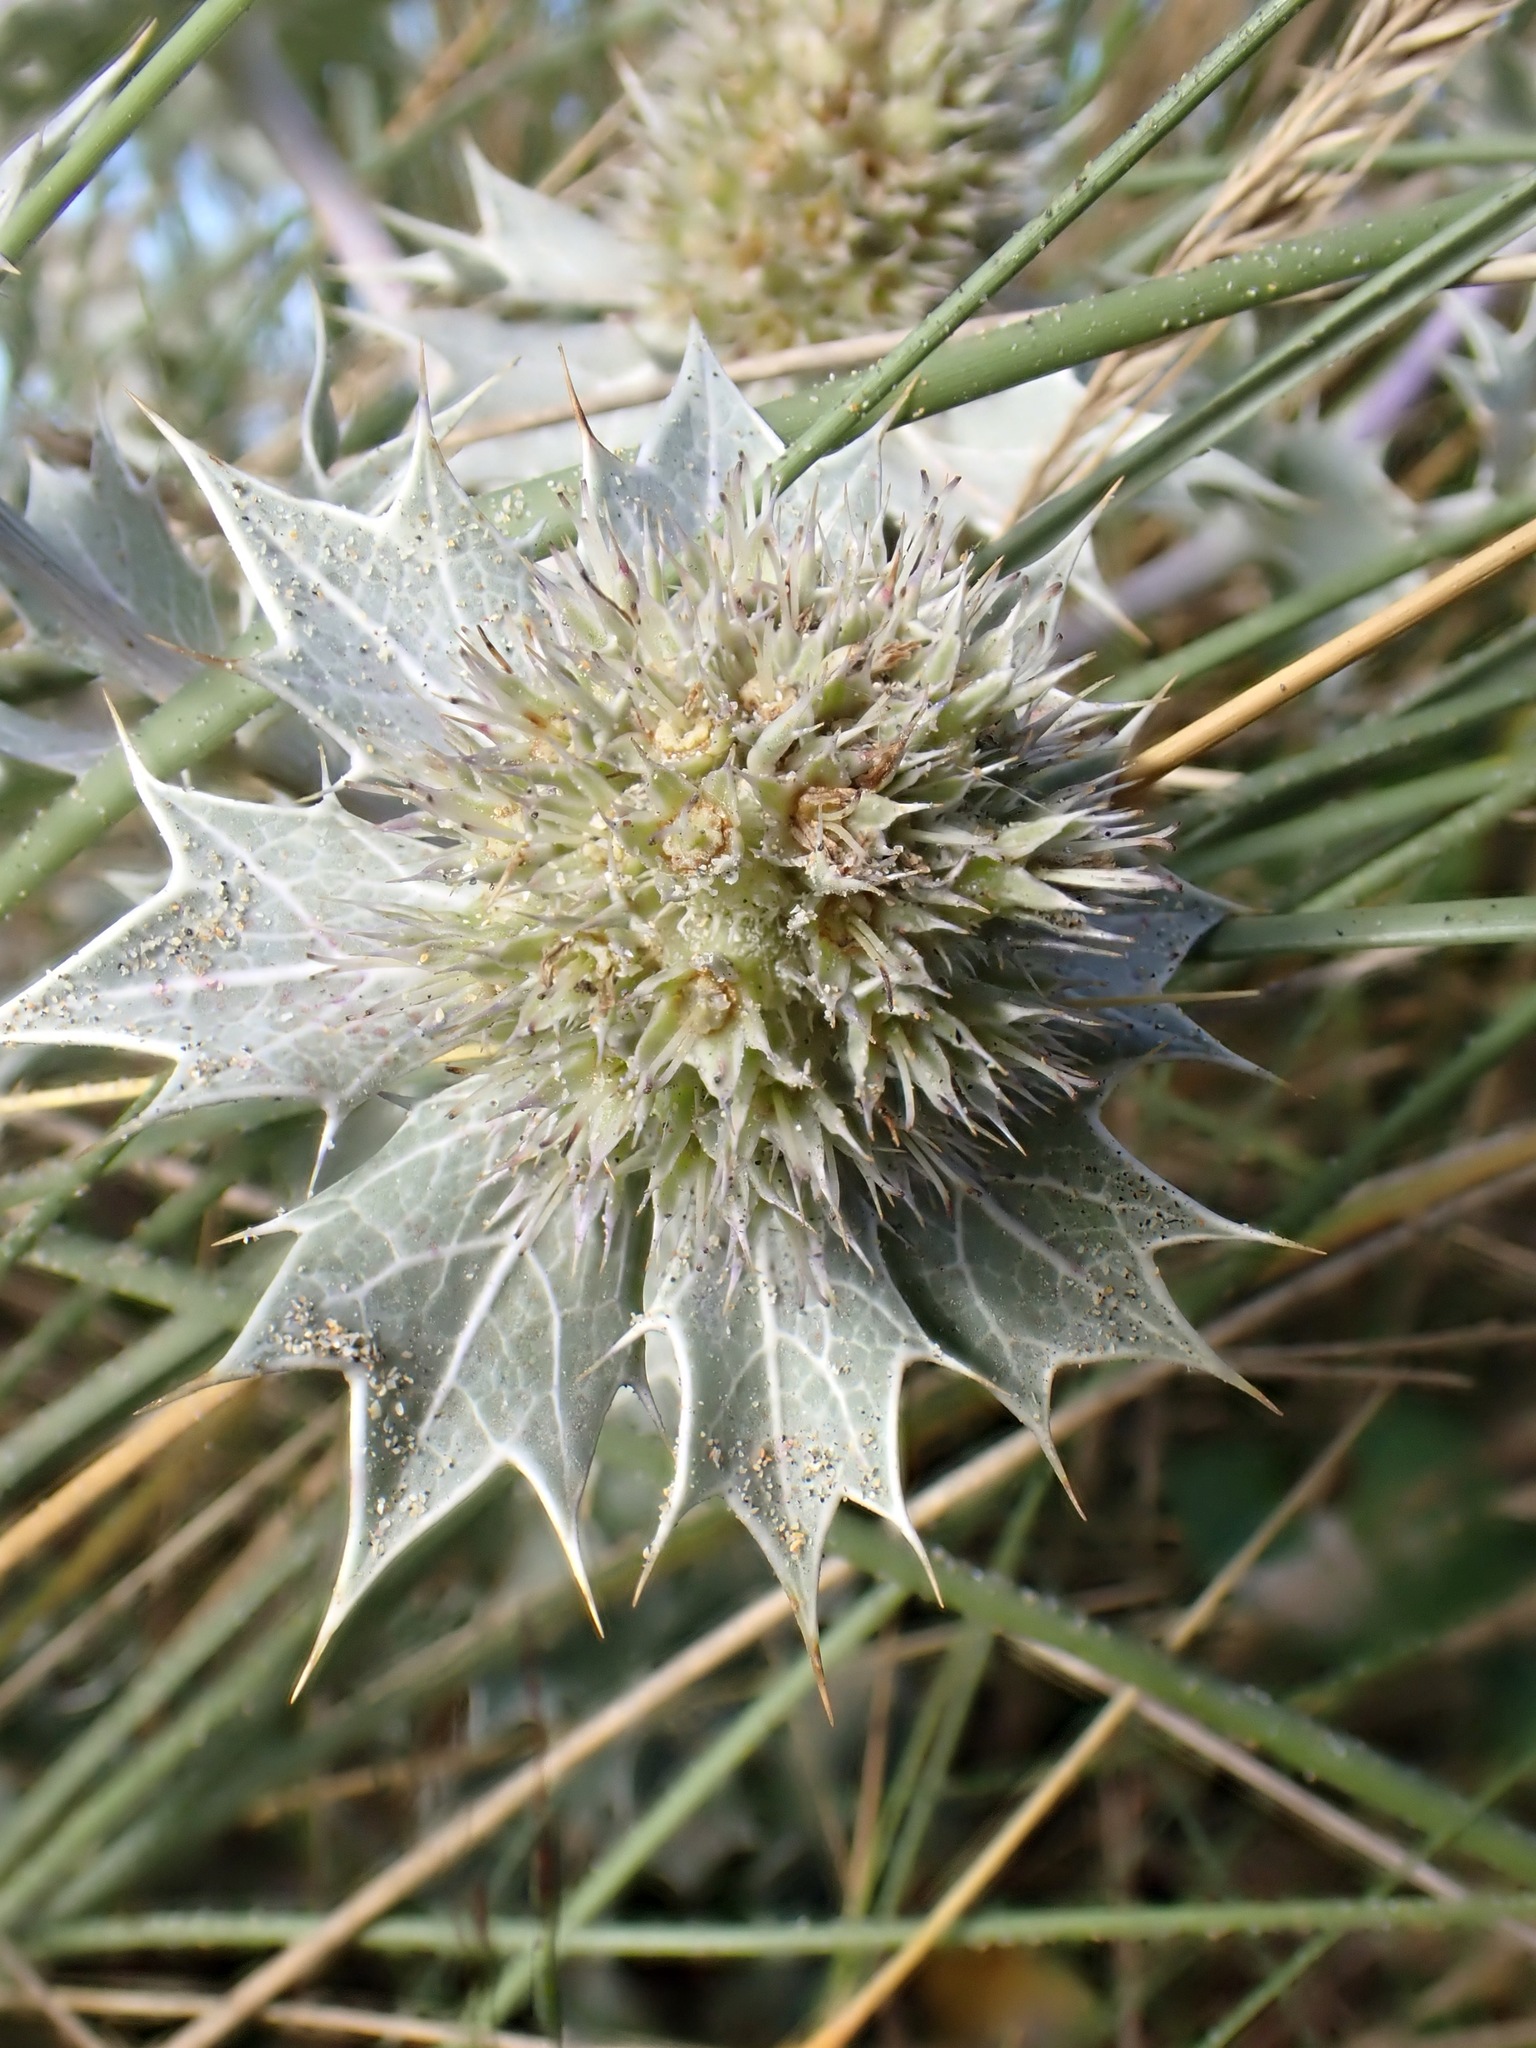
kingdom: Plantae
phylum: Tracheophyta
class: Magnoliopsida
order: Apiales
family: Apiaceae
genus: Eryngium
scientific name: Eryngium maritimum
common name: Sea-holly
